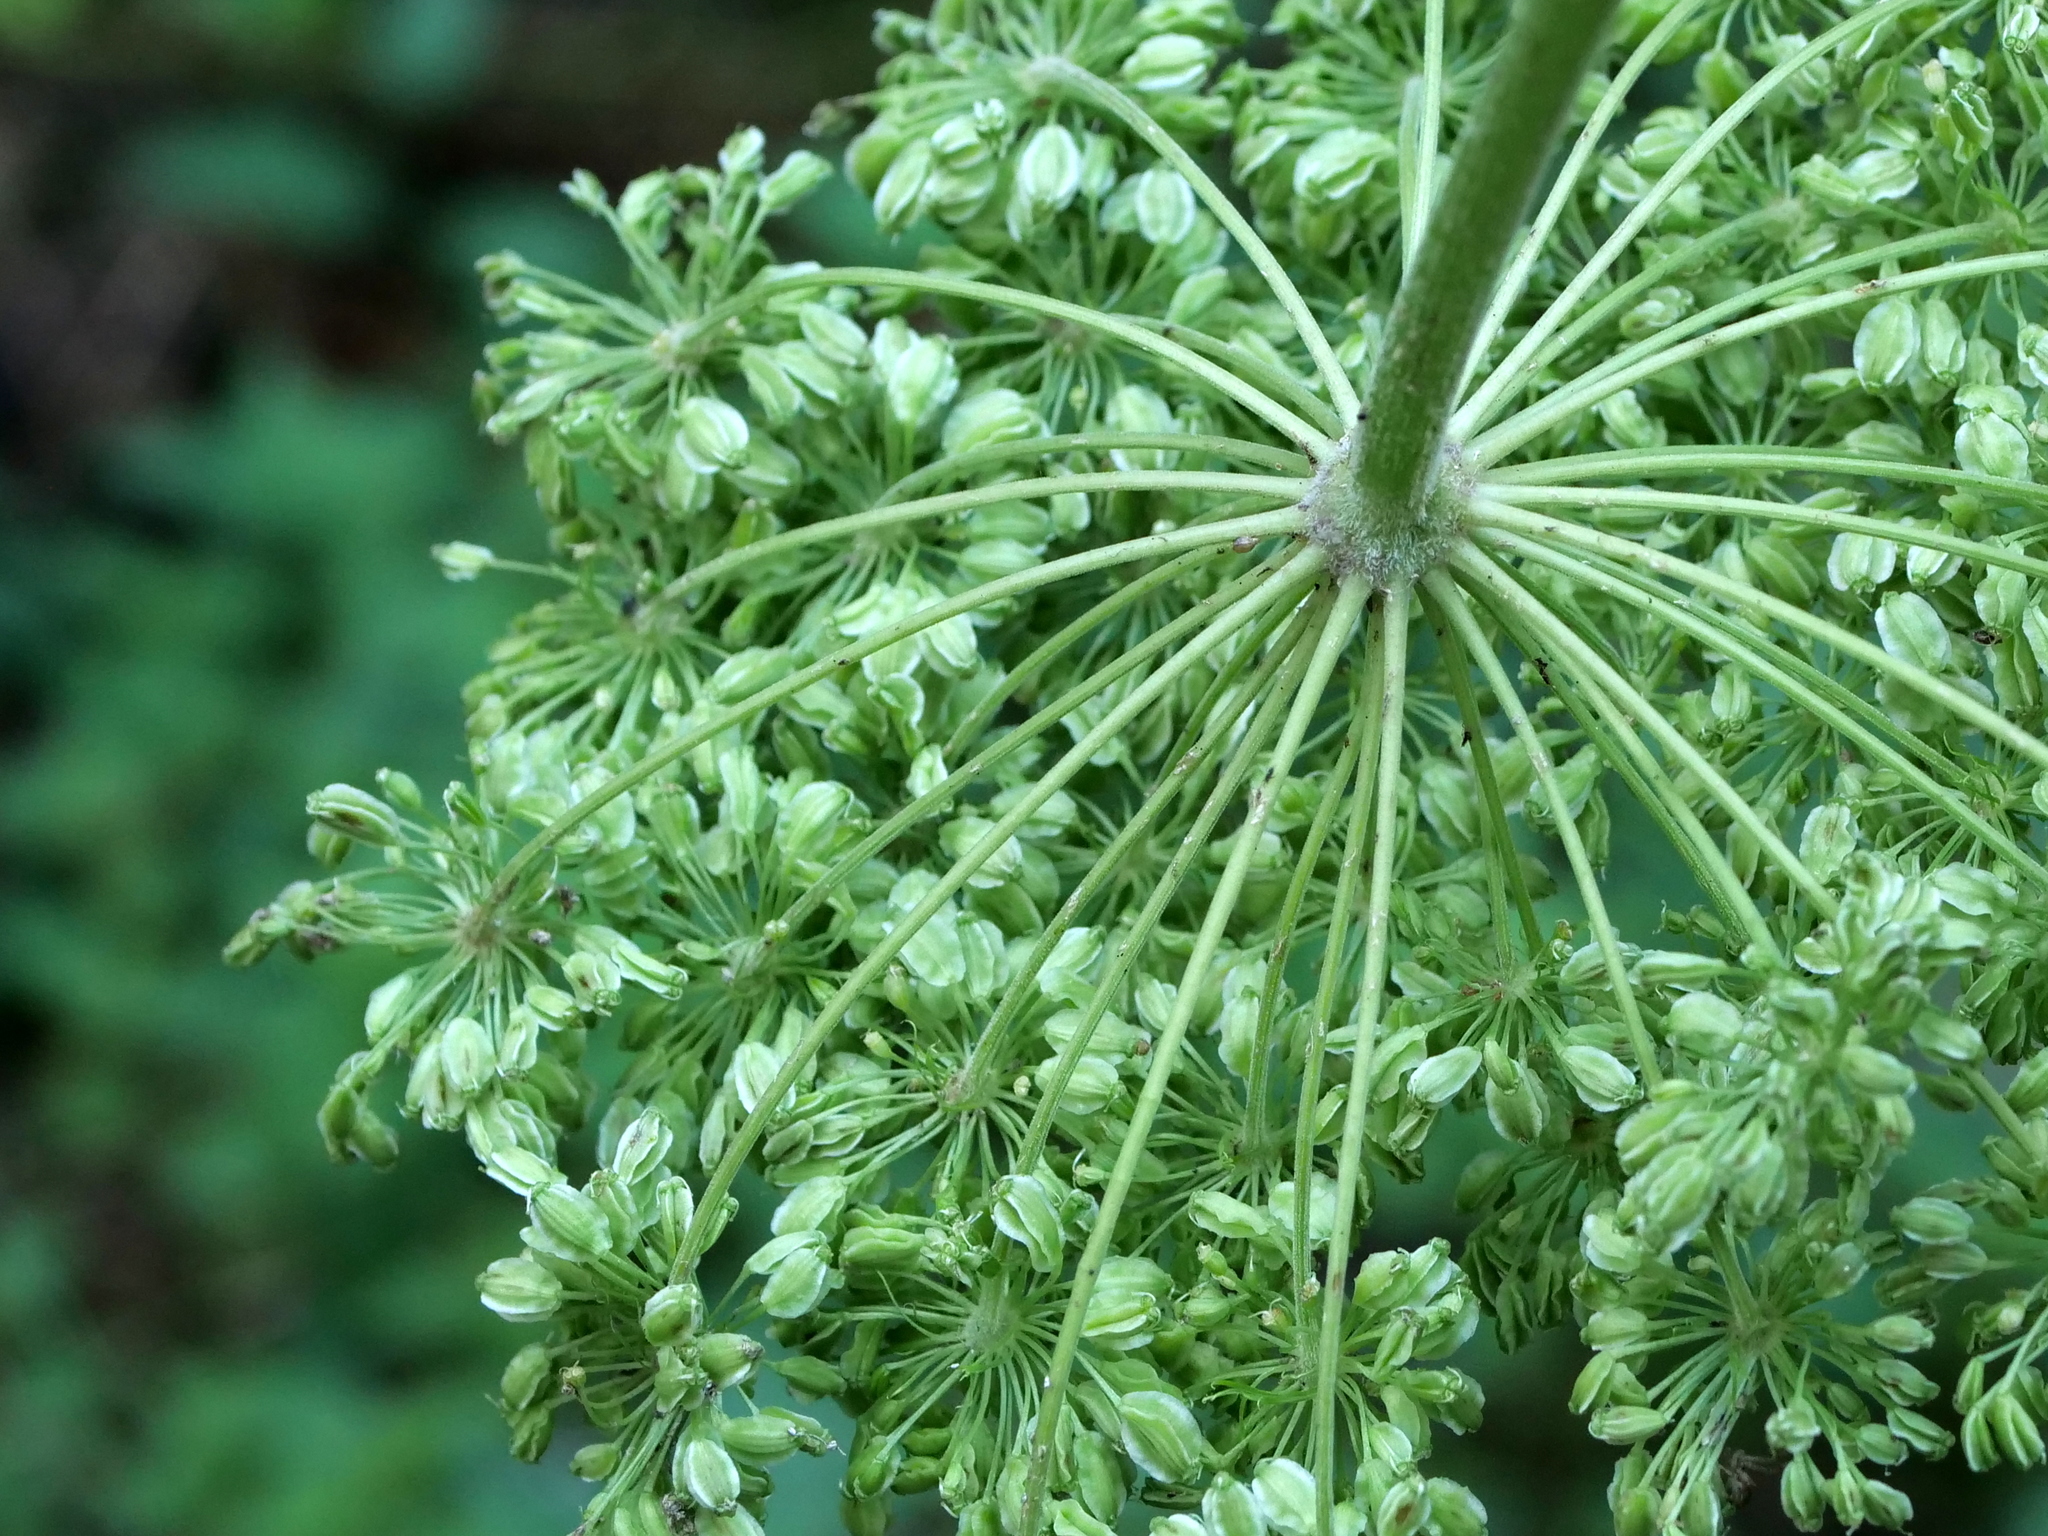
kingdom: Plantae
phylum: Tracheophyta
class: Magnoliopsida
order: Apiales
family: Apiaceae
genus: Angelica
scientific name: Angelica sylvestris
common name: Wild angelica
